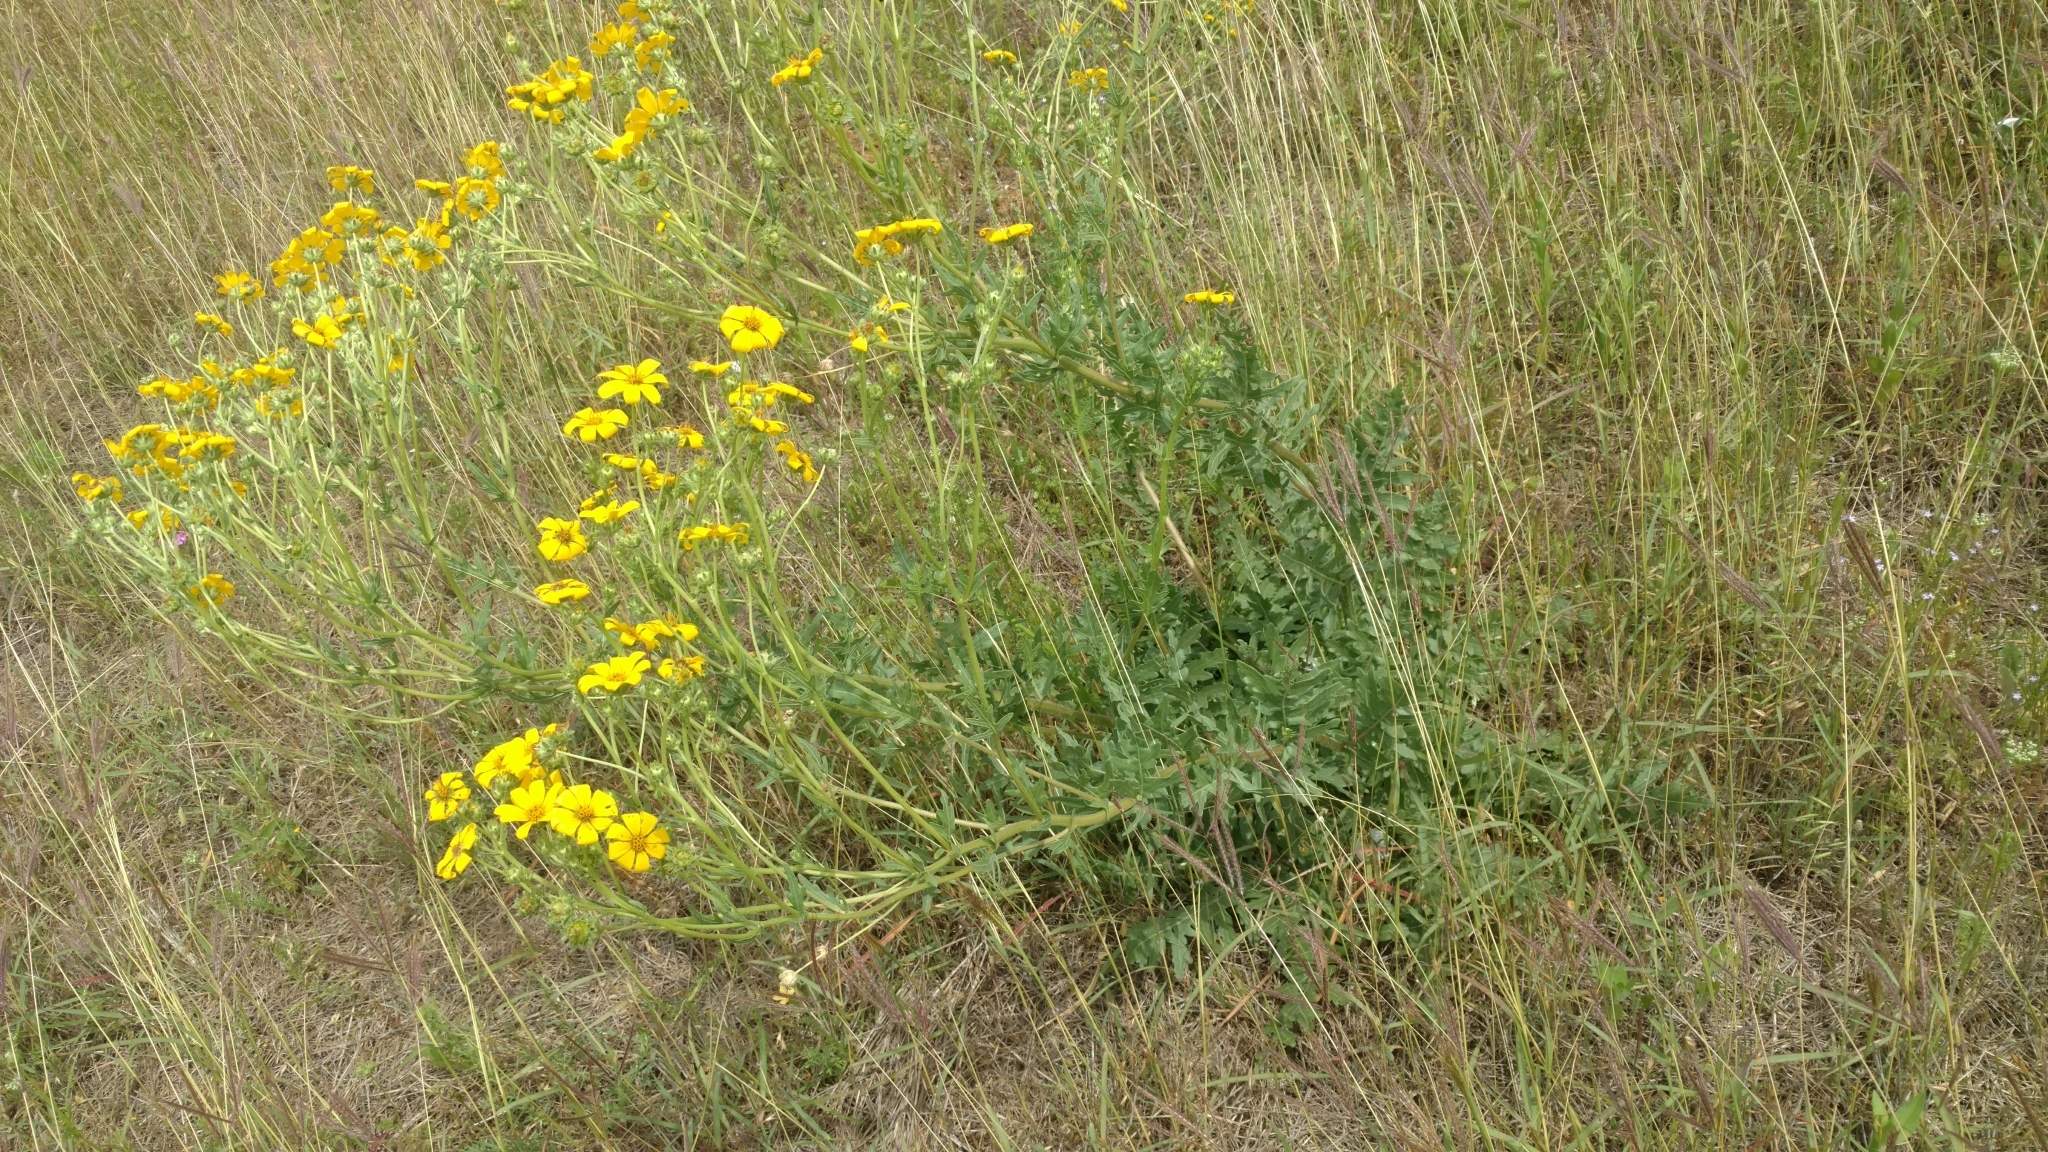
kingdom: Plantae
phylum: Tracheophyta
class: Magnoliopsida
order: Asterales
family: Asteraceae
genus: Engelmannia
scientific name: Engelmannia peristenia
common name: Engelmann's daisy
